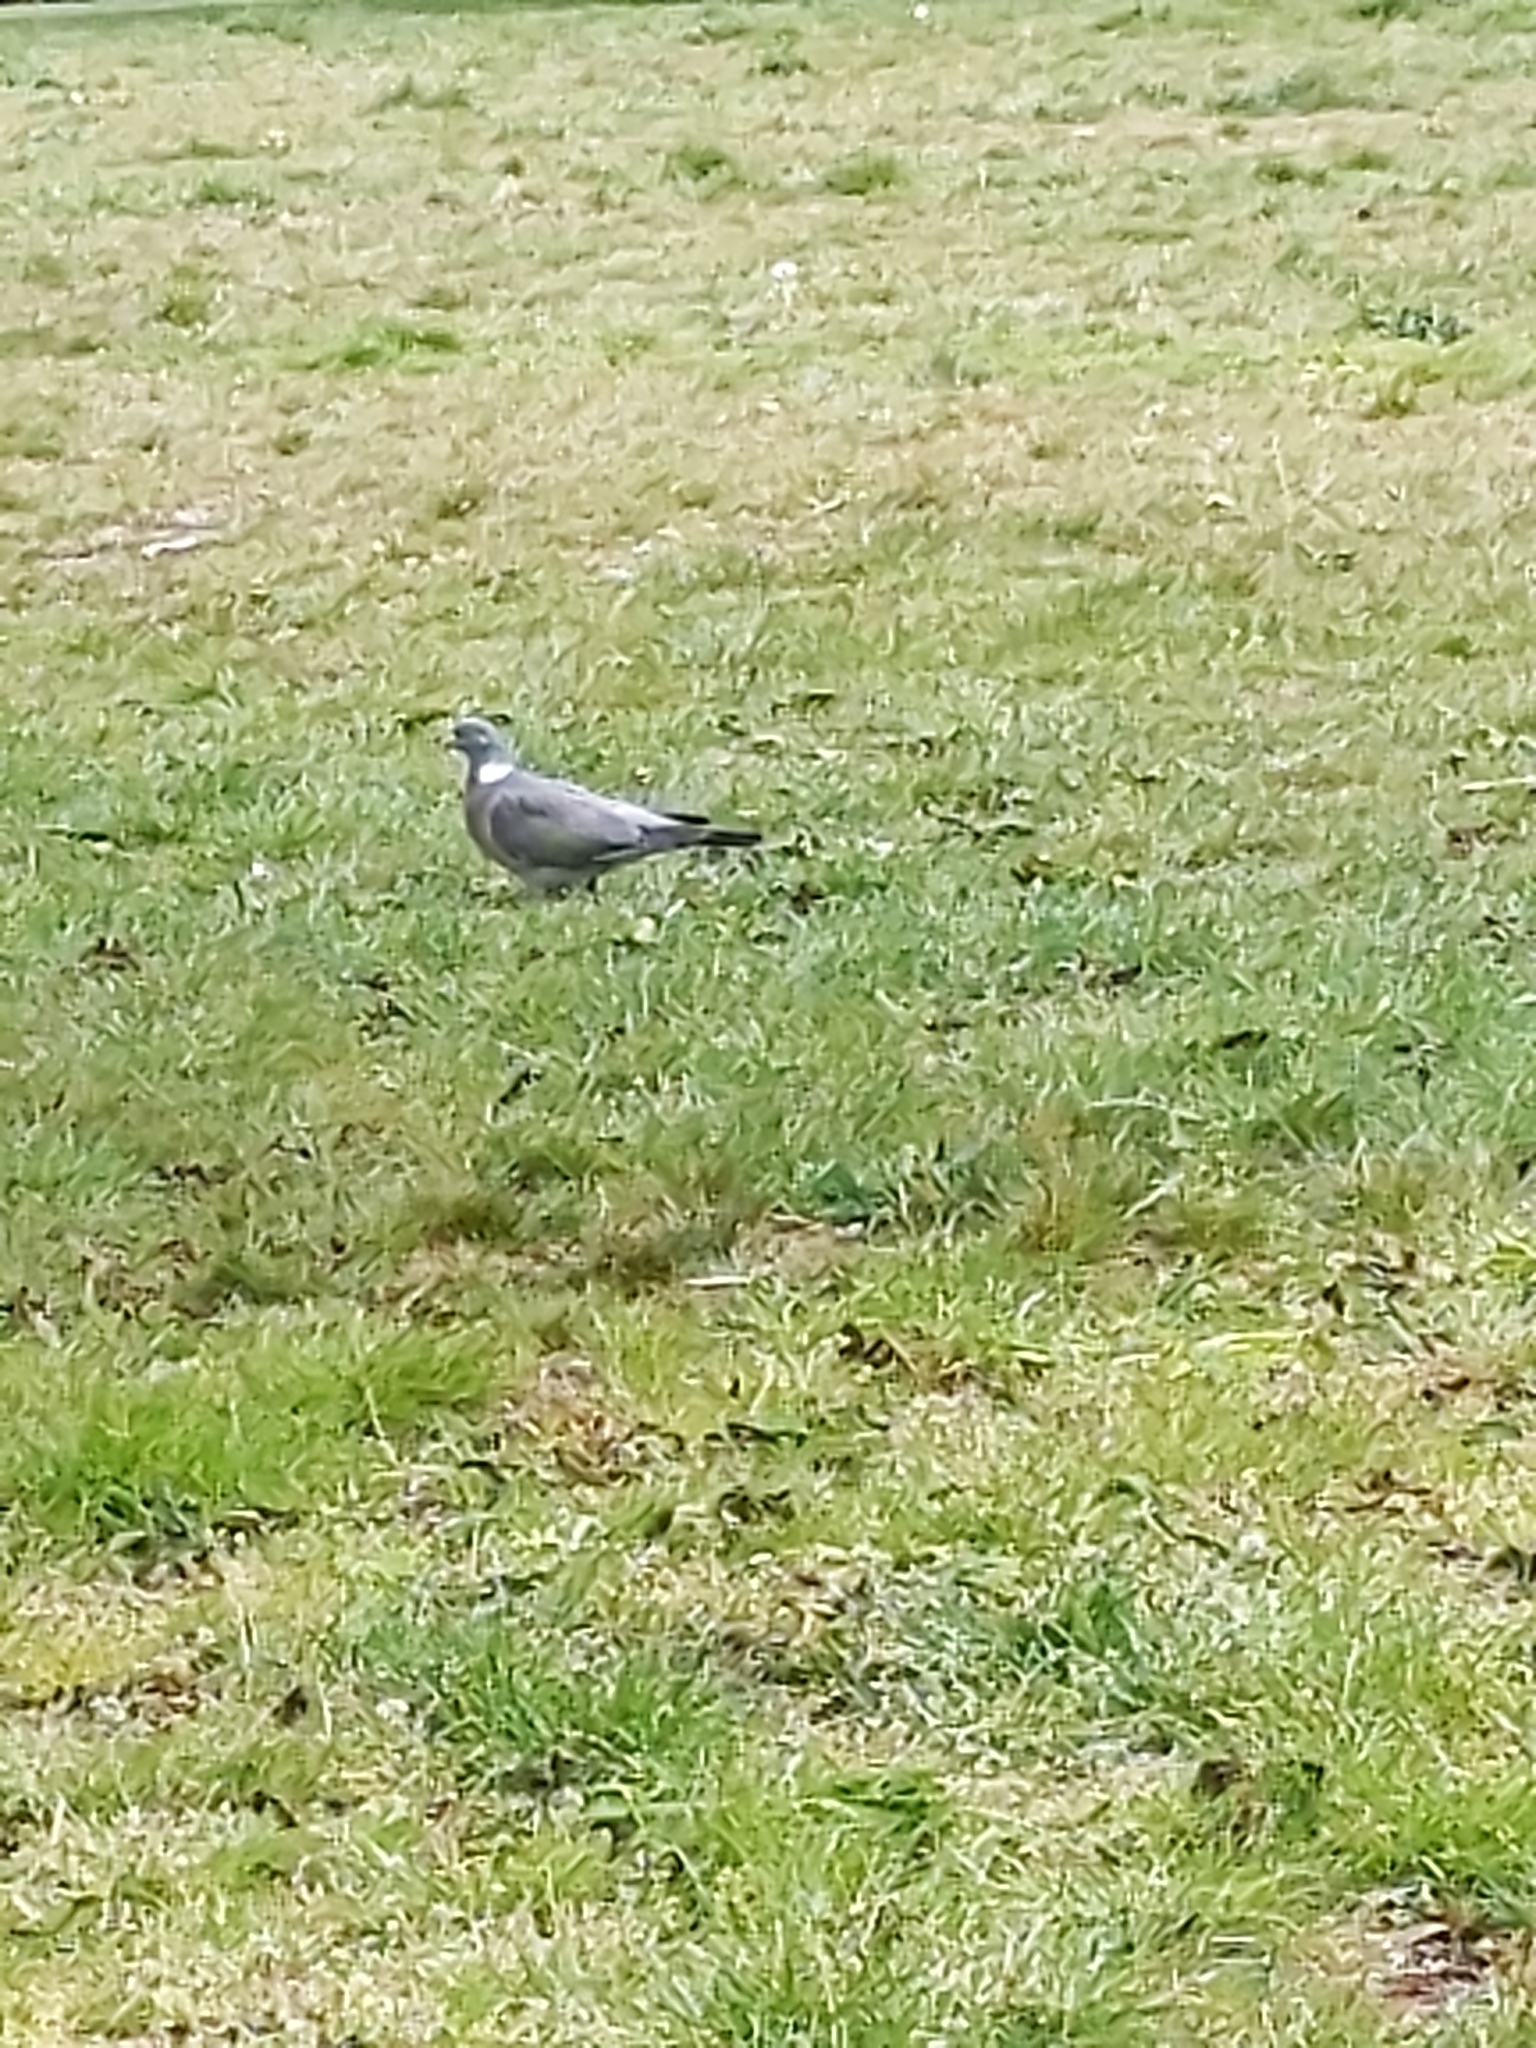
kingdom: Animalia
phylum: Chordata
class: Aves
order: Columbiformes
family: Columbidae
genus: Columba
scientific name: Columba palumbus
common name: Common wood pigeon
